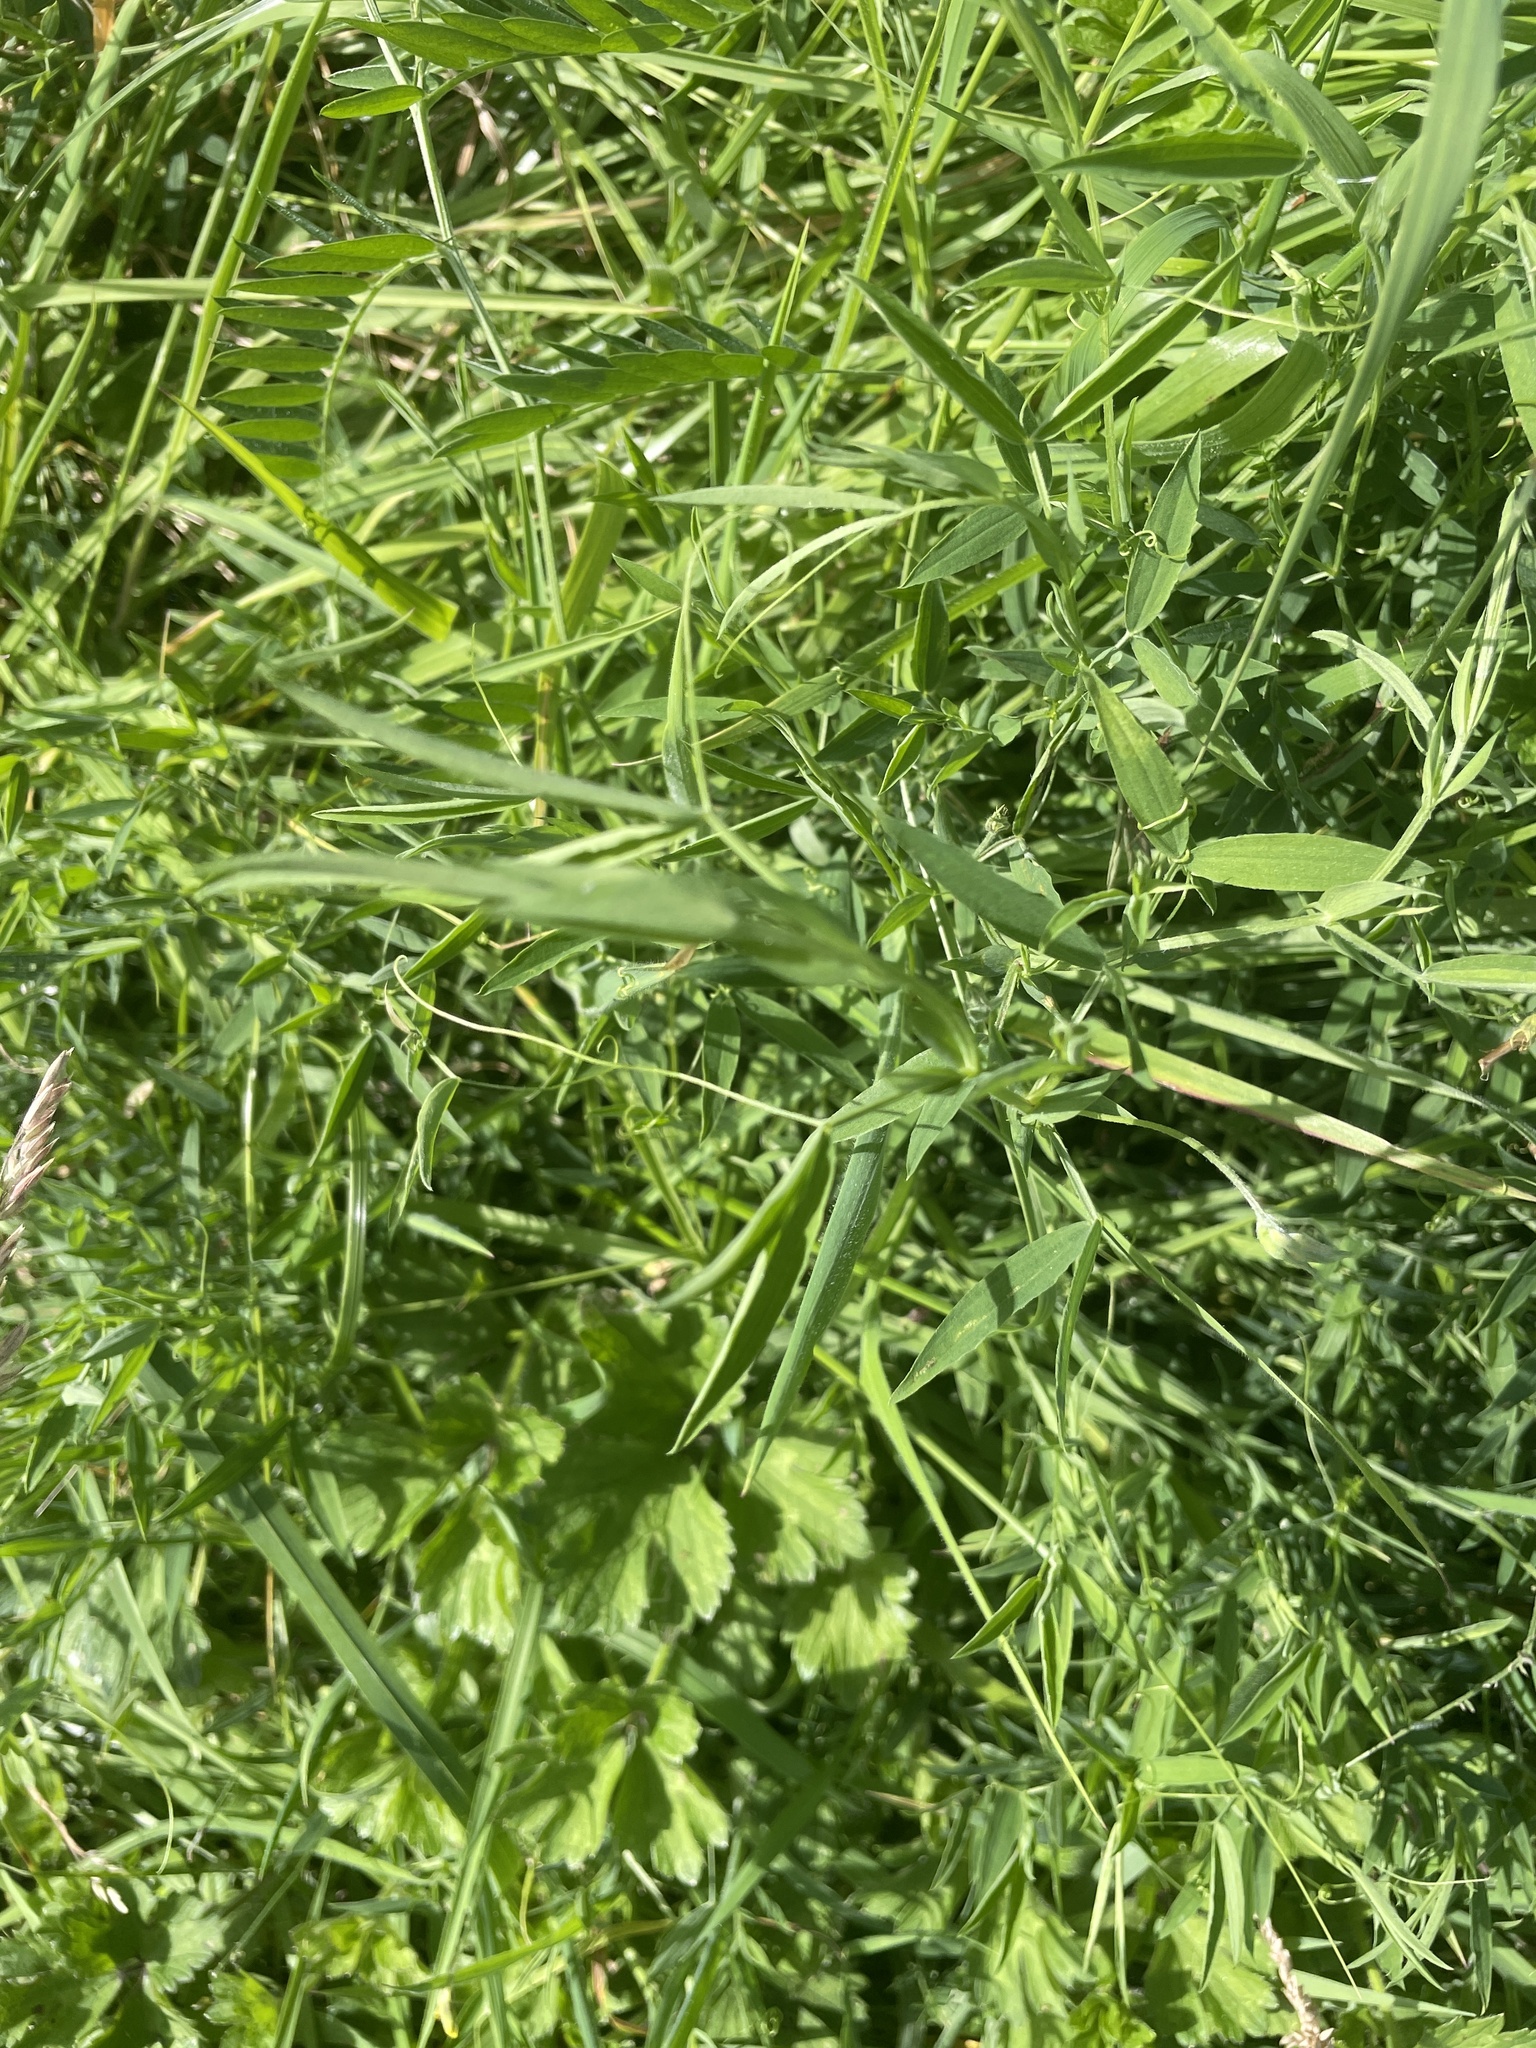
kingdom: Plantae
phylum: Tracheophyta
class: Magnoliopsida
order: Fabales
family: Fabaceae
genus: Lathyrus
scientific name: Lathyrus pratensis
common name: Meadow vetchling
